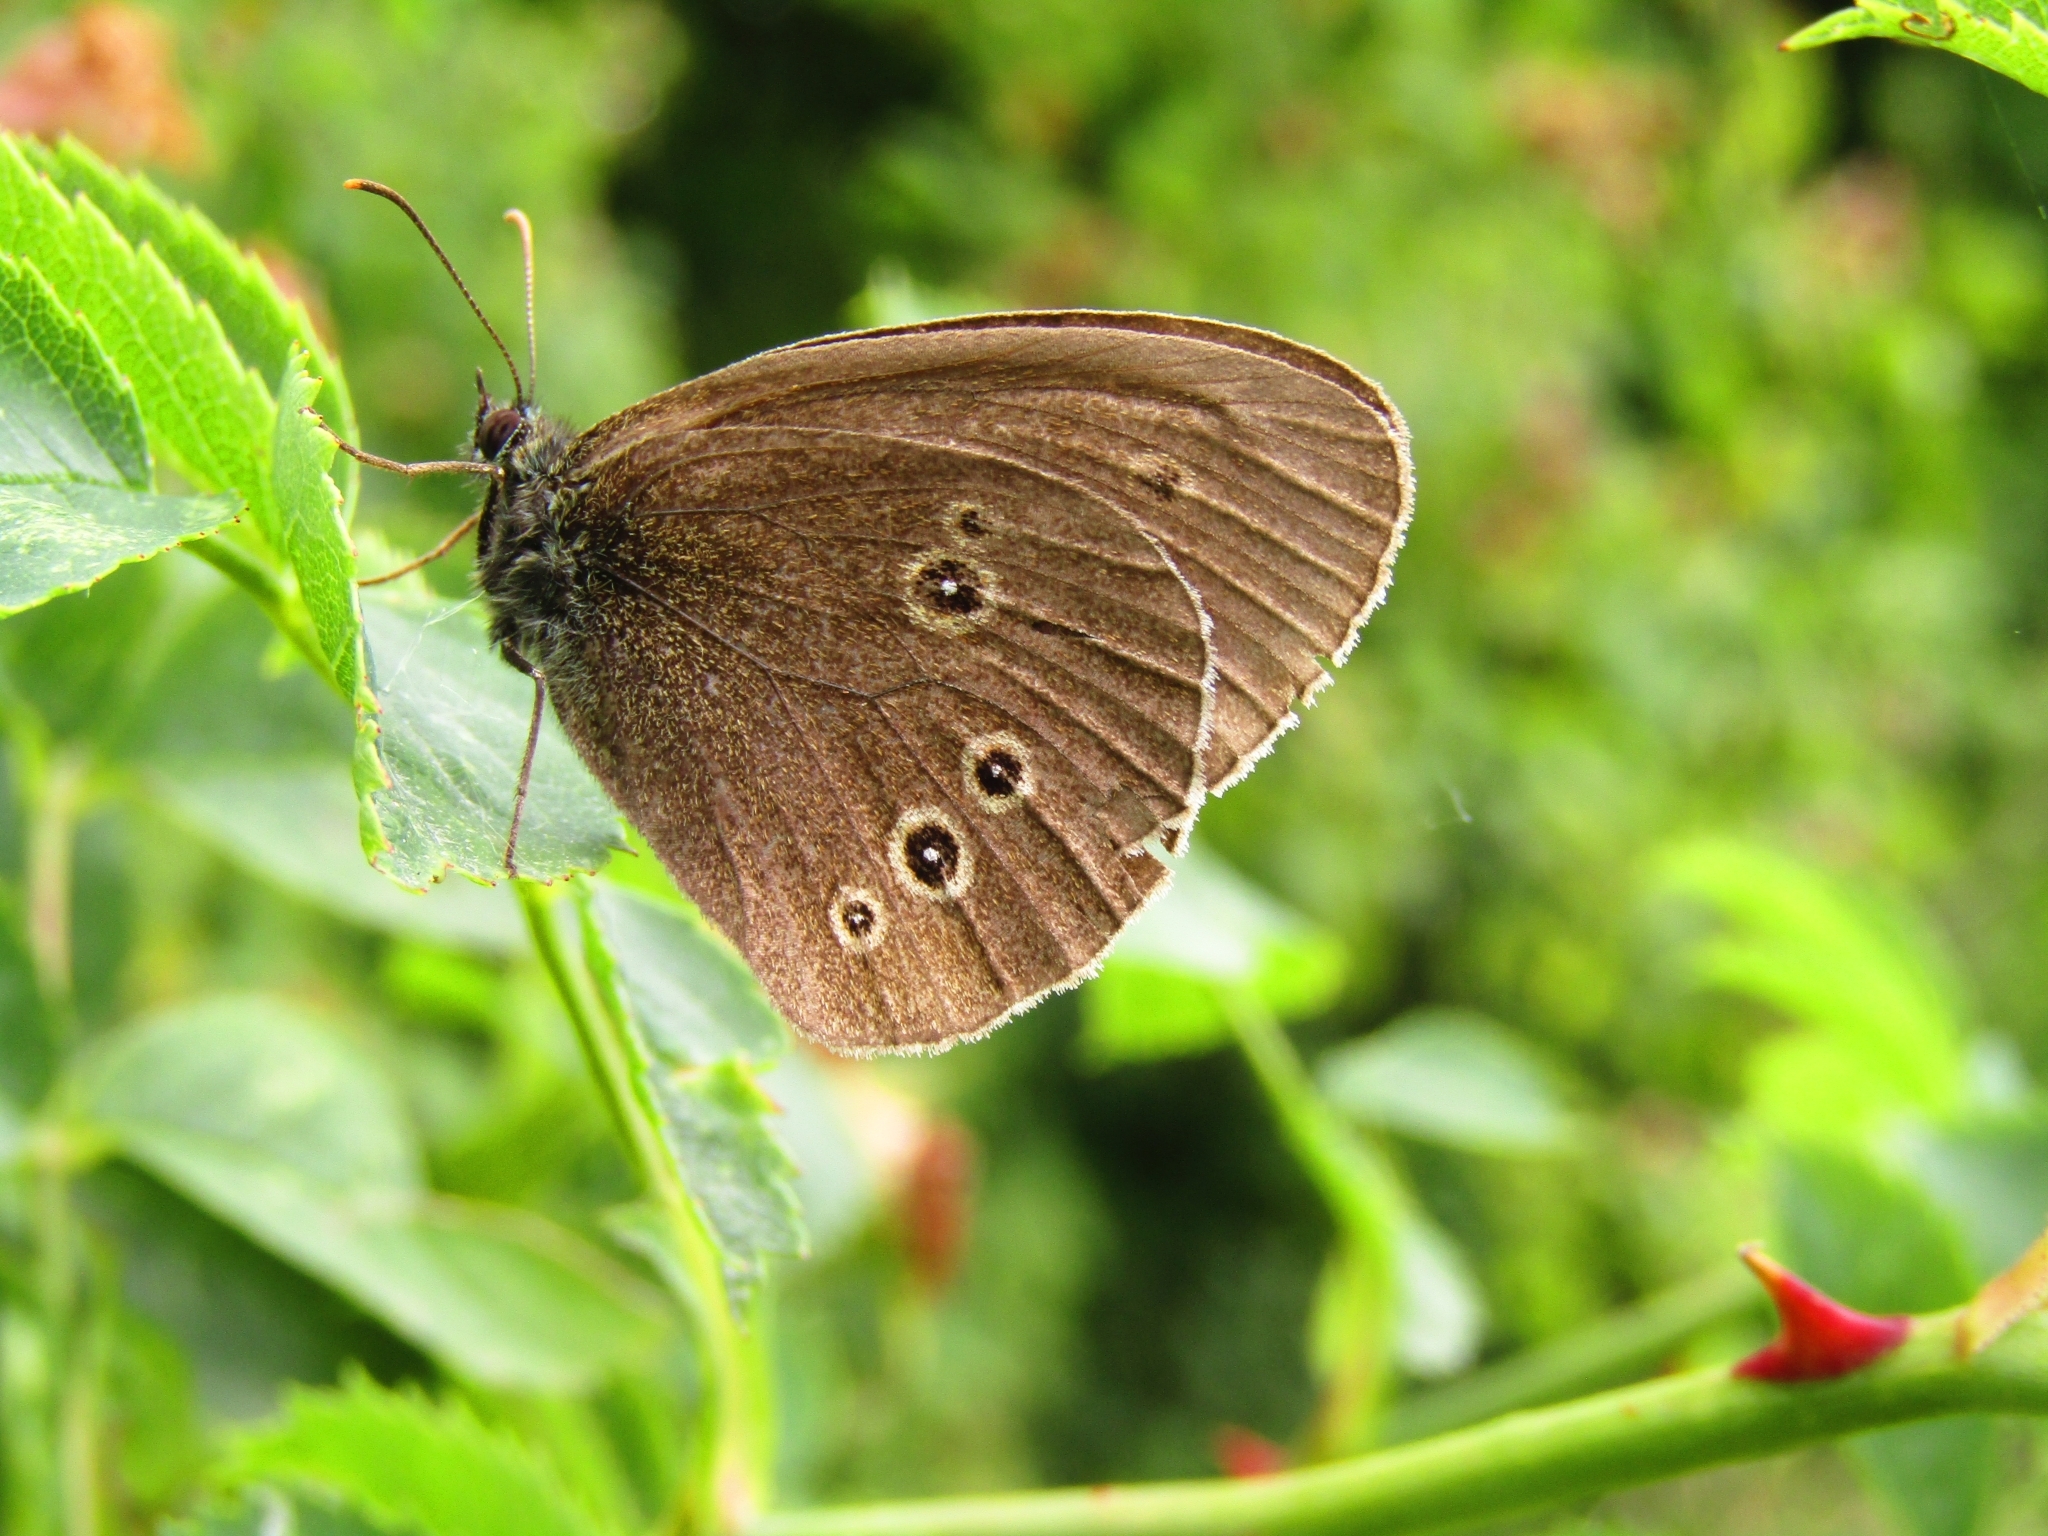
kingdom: Animalia
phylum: Arthropoda
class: Insecta
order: Lepidoptera
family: Nymphalidae
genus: Aphantopus
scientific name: Aphantopus hyperantus
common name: Ringlet
